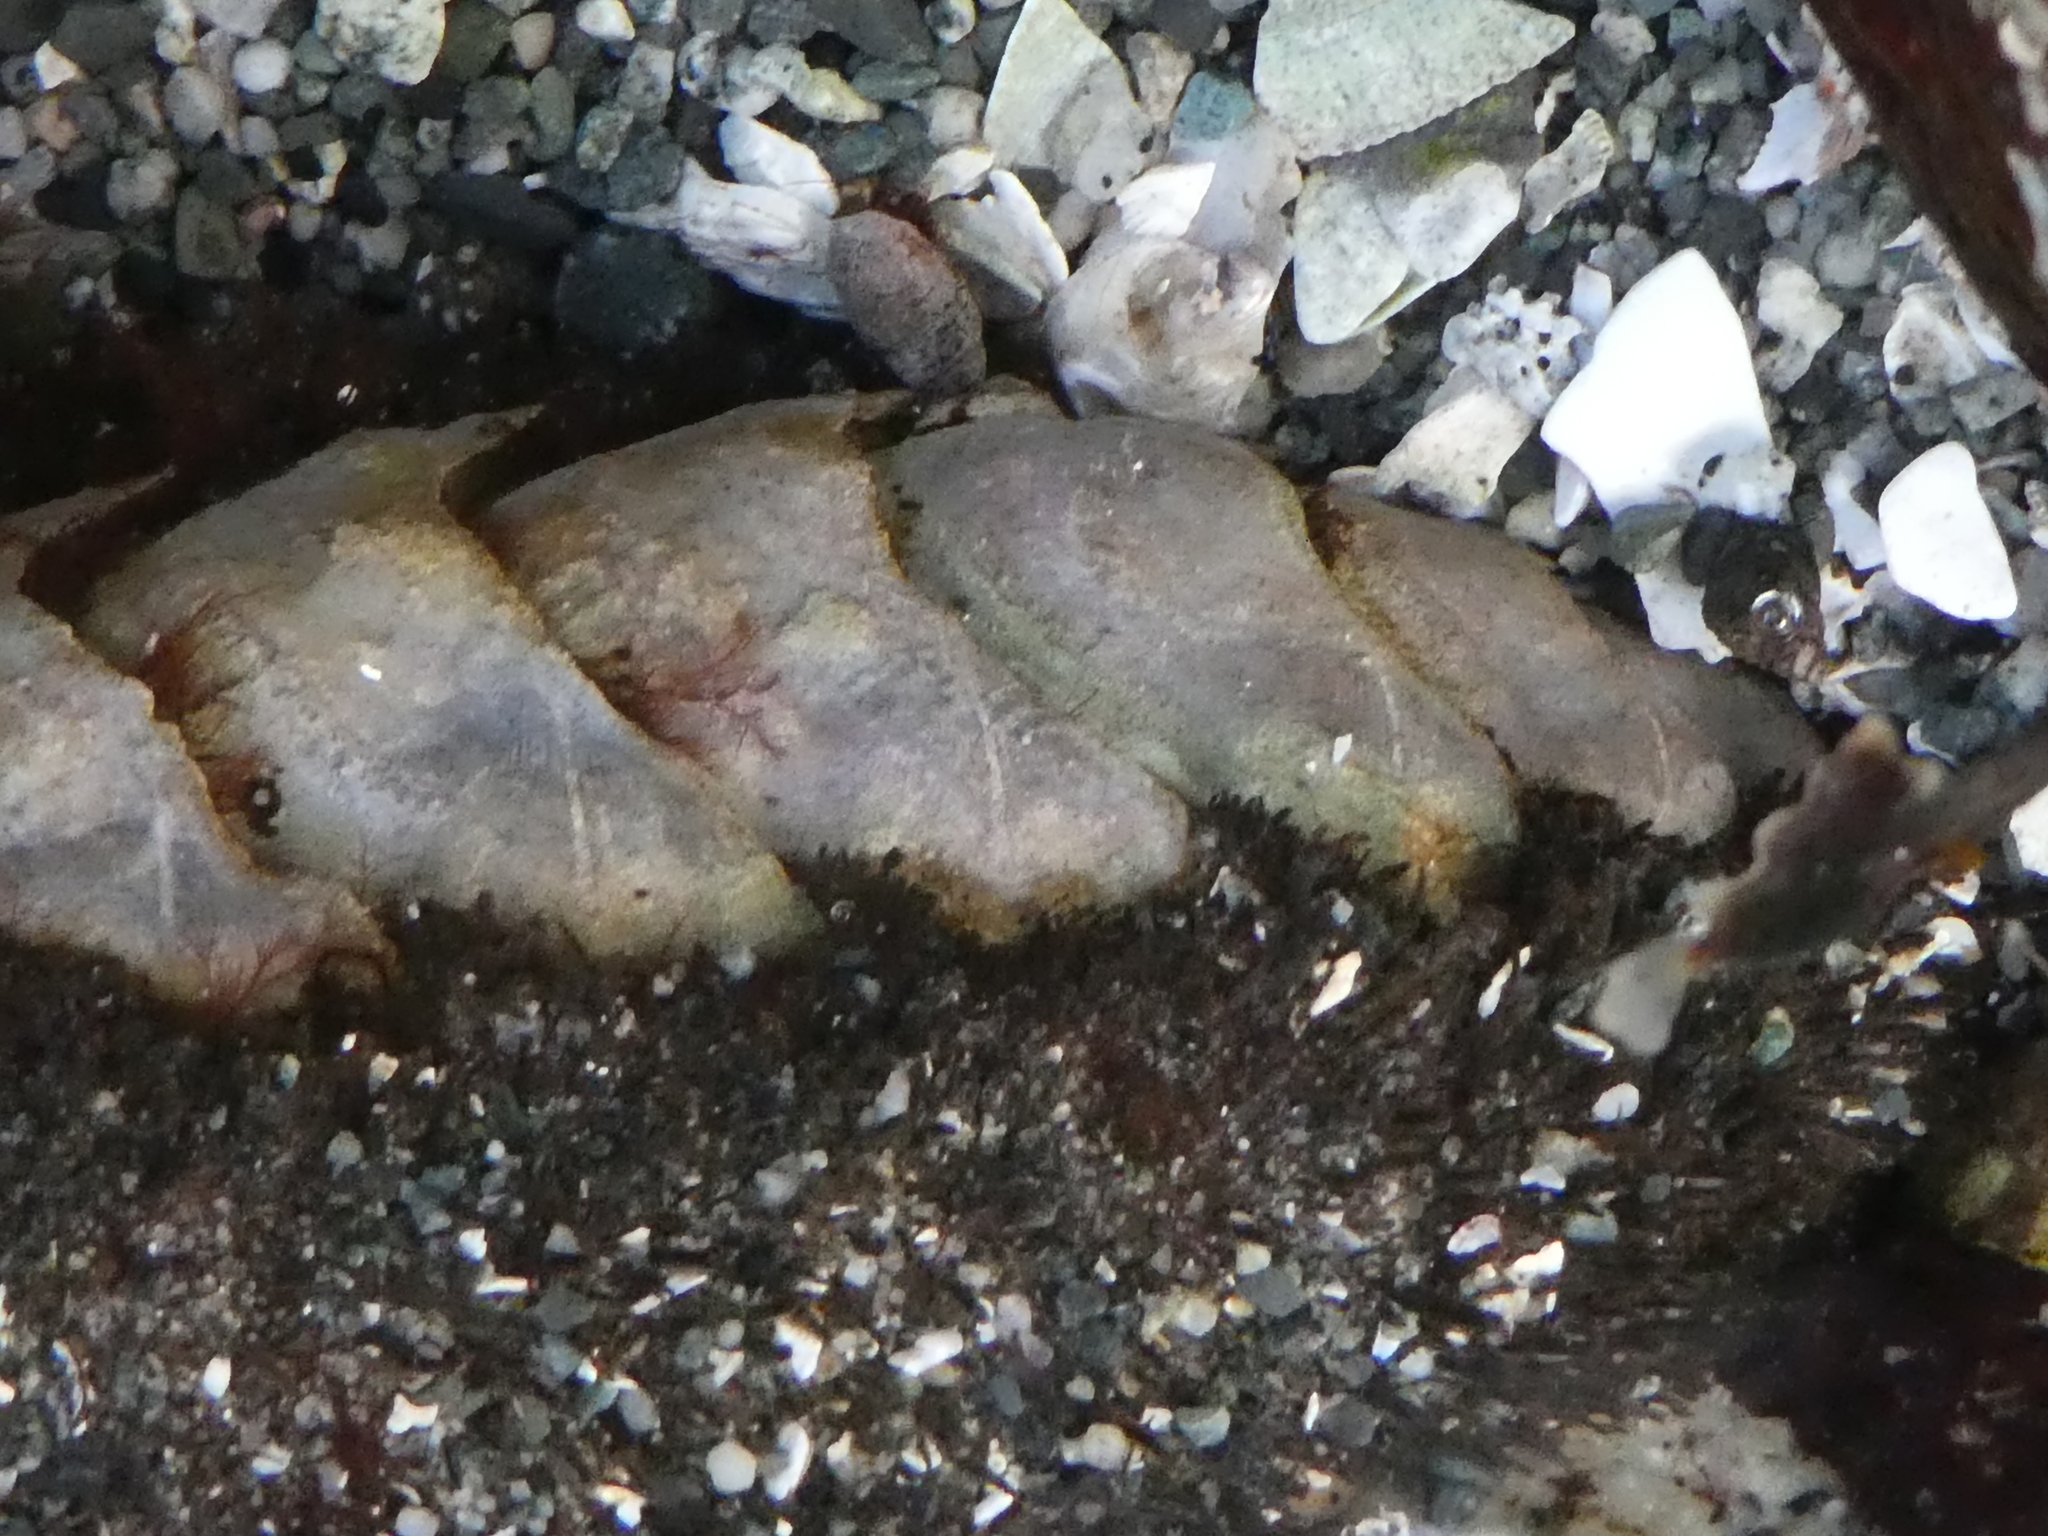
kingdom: Animalia
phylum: Mollusca
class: Polyplacophora
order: Chitonida
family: Mopaliidae
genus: Mopalia
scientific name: Mopalia muscosa
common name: Mossy chiton
